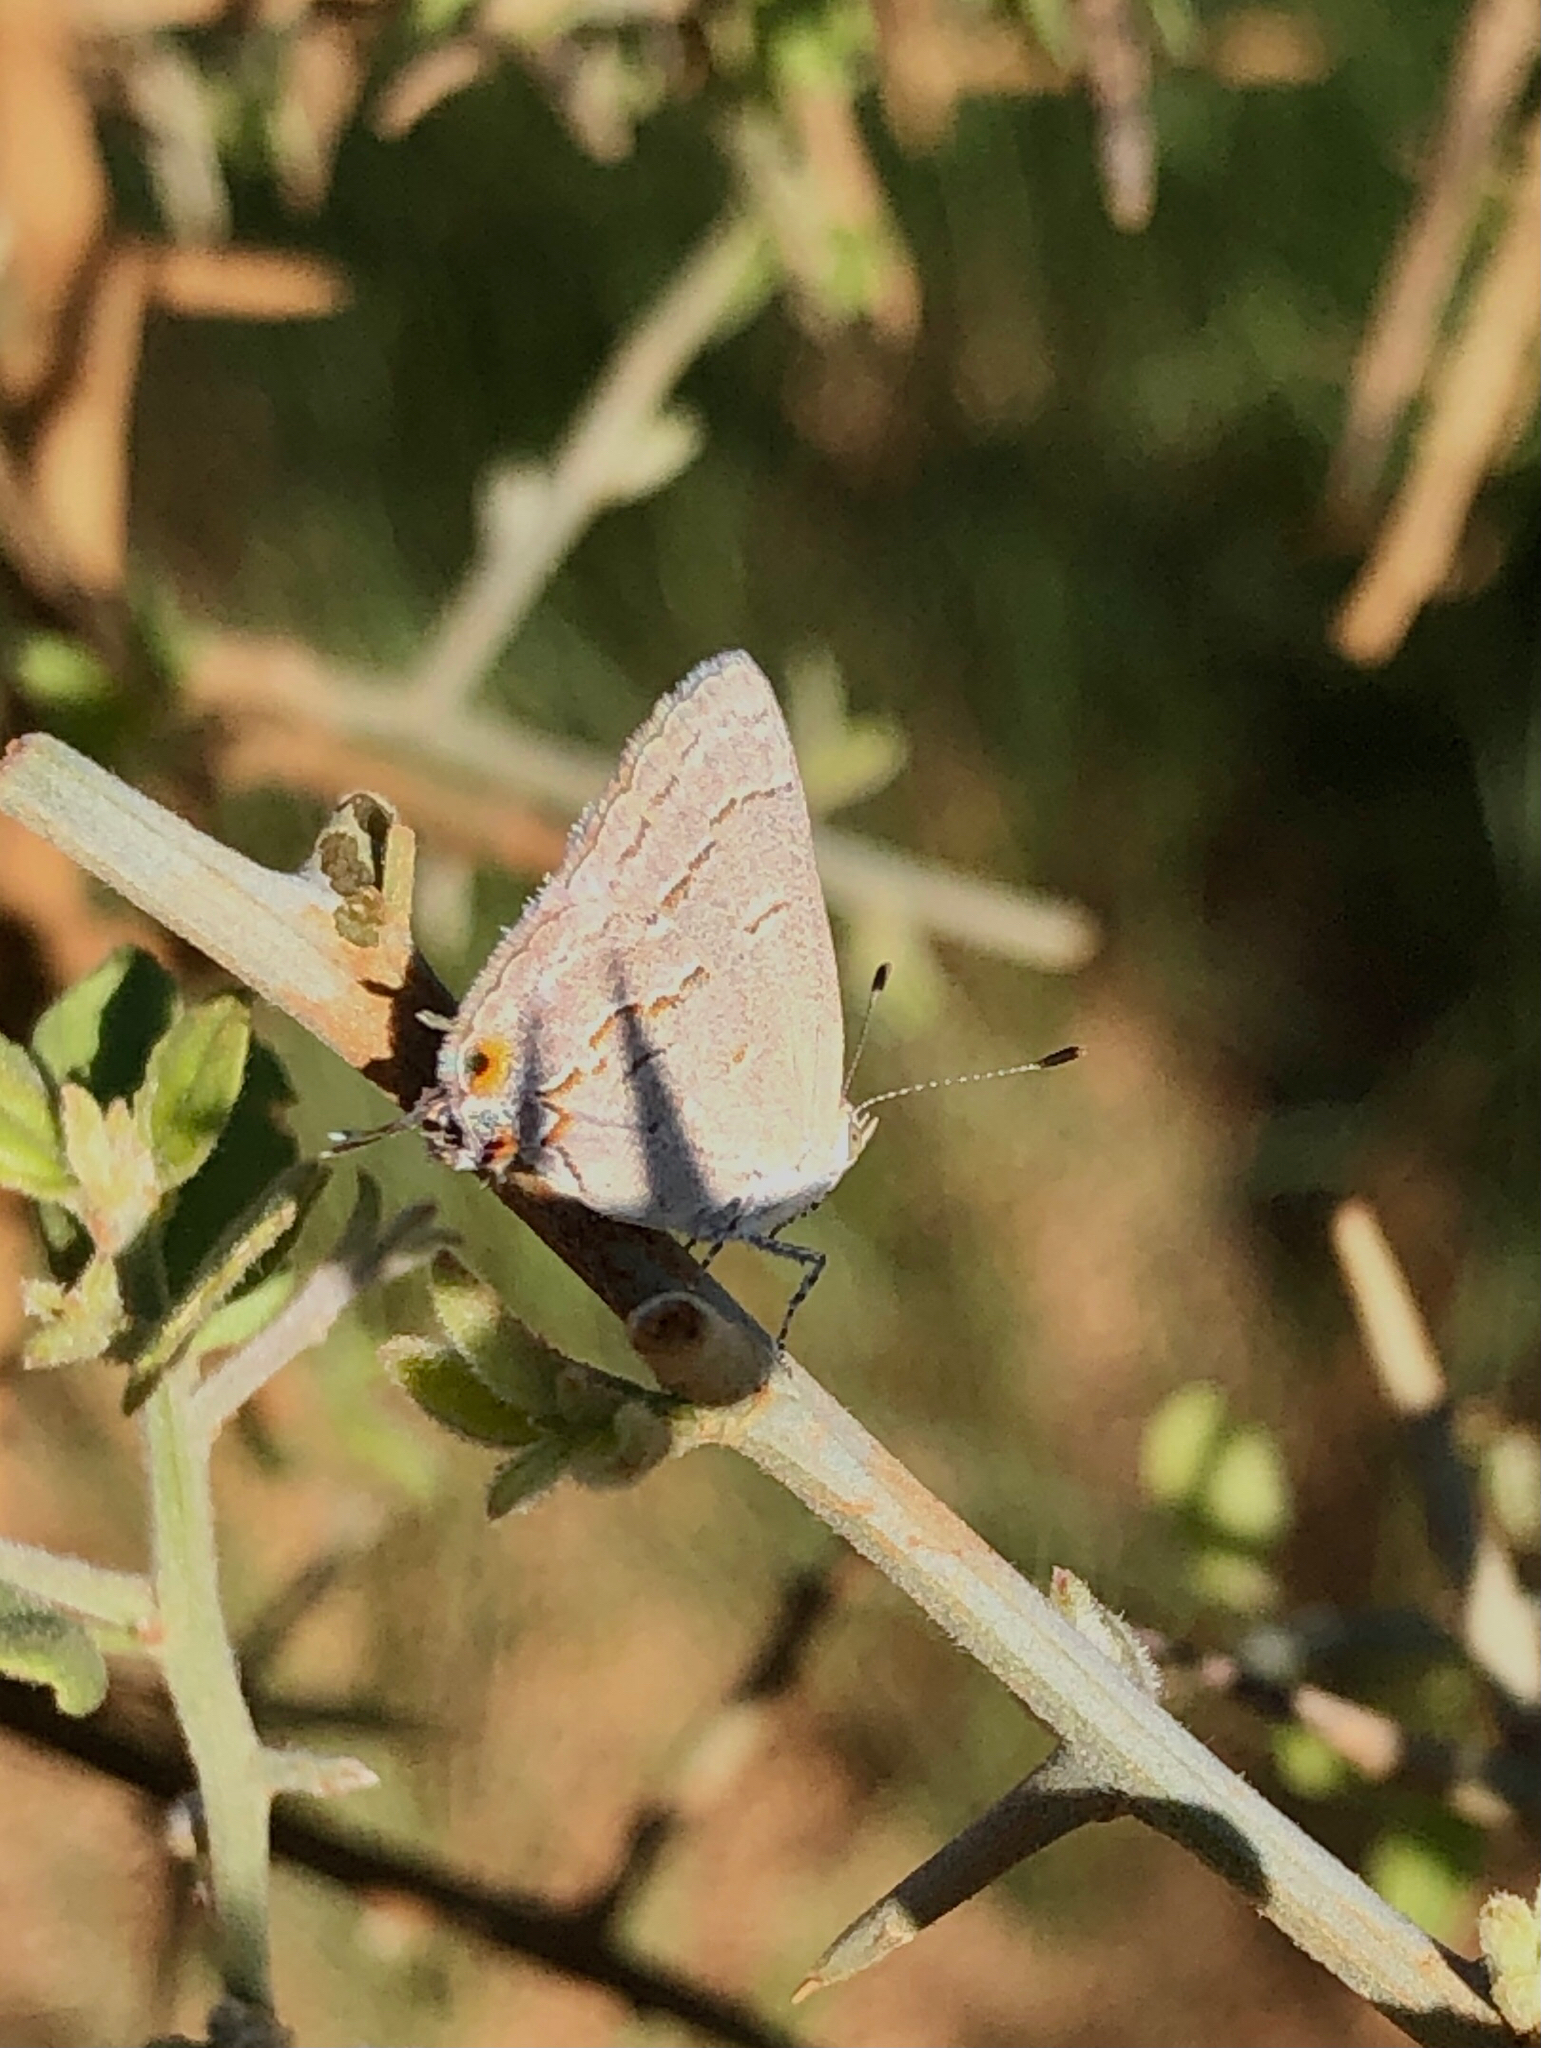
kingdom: Animalia
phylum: Arthropoda
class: Insecta
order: Lepidoptera
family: Lycaenidae
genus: Ministrymon
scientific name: Ministrymon leda
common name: Leda ministreak
